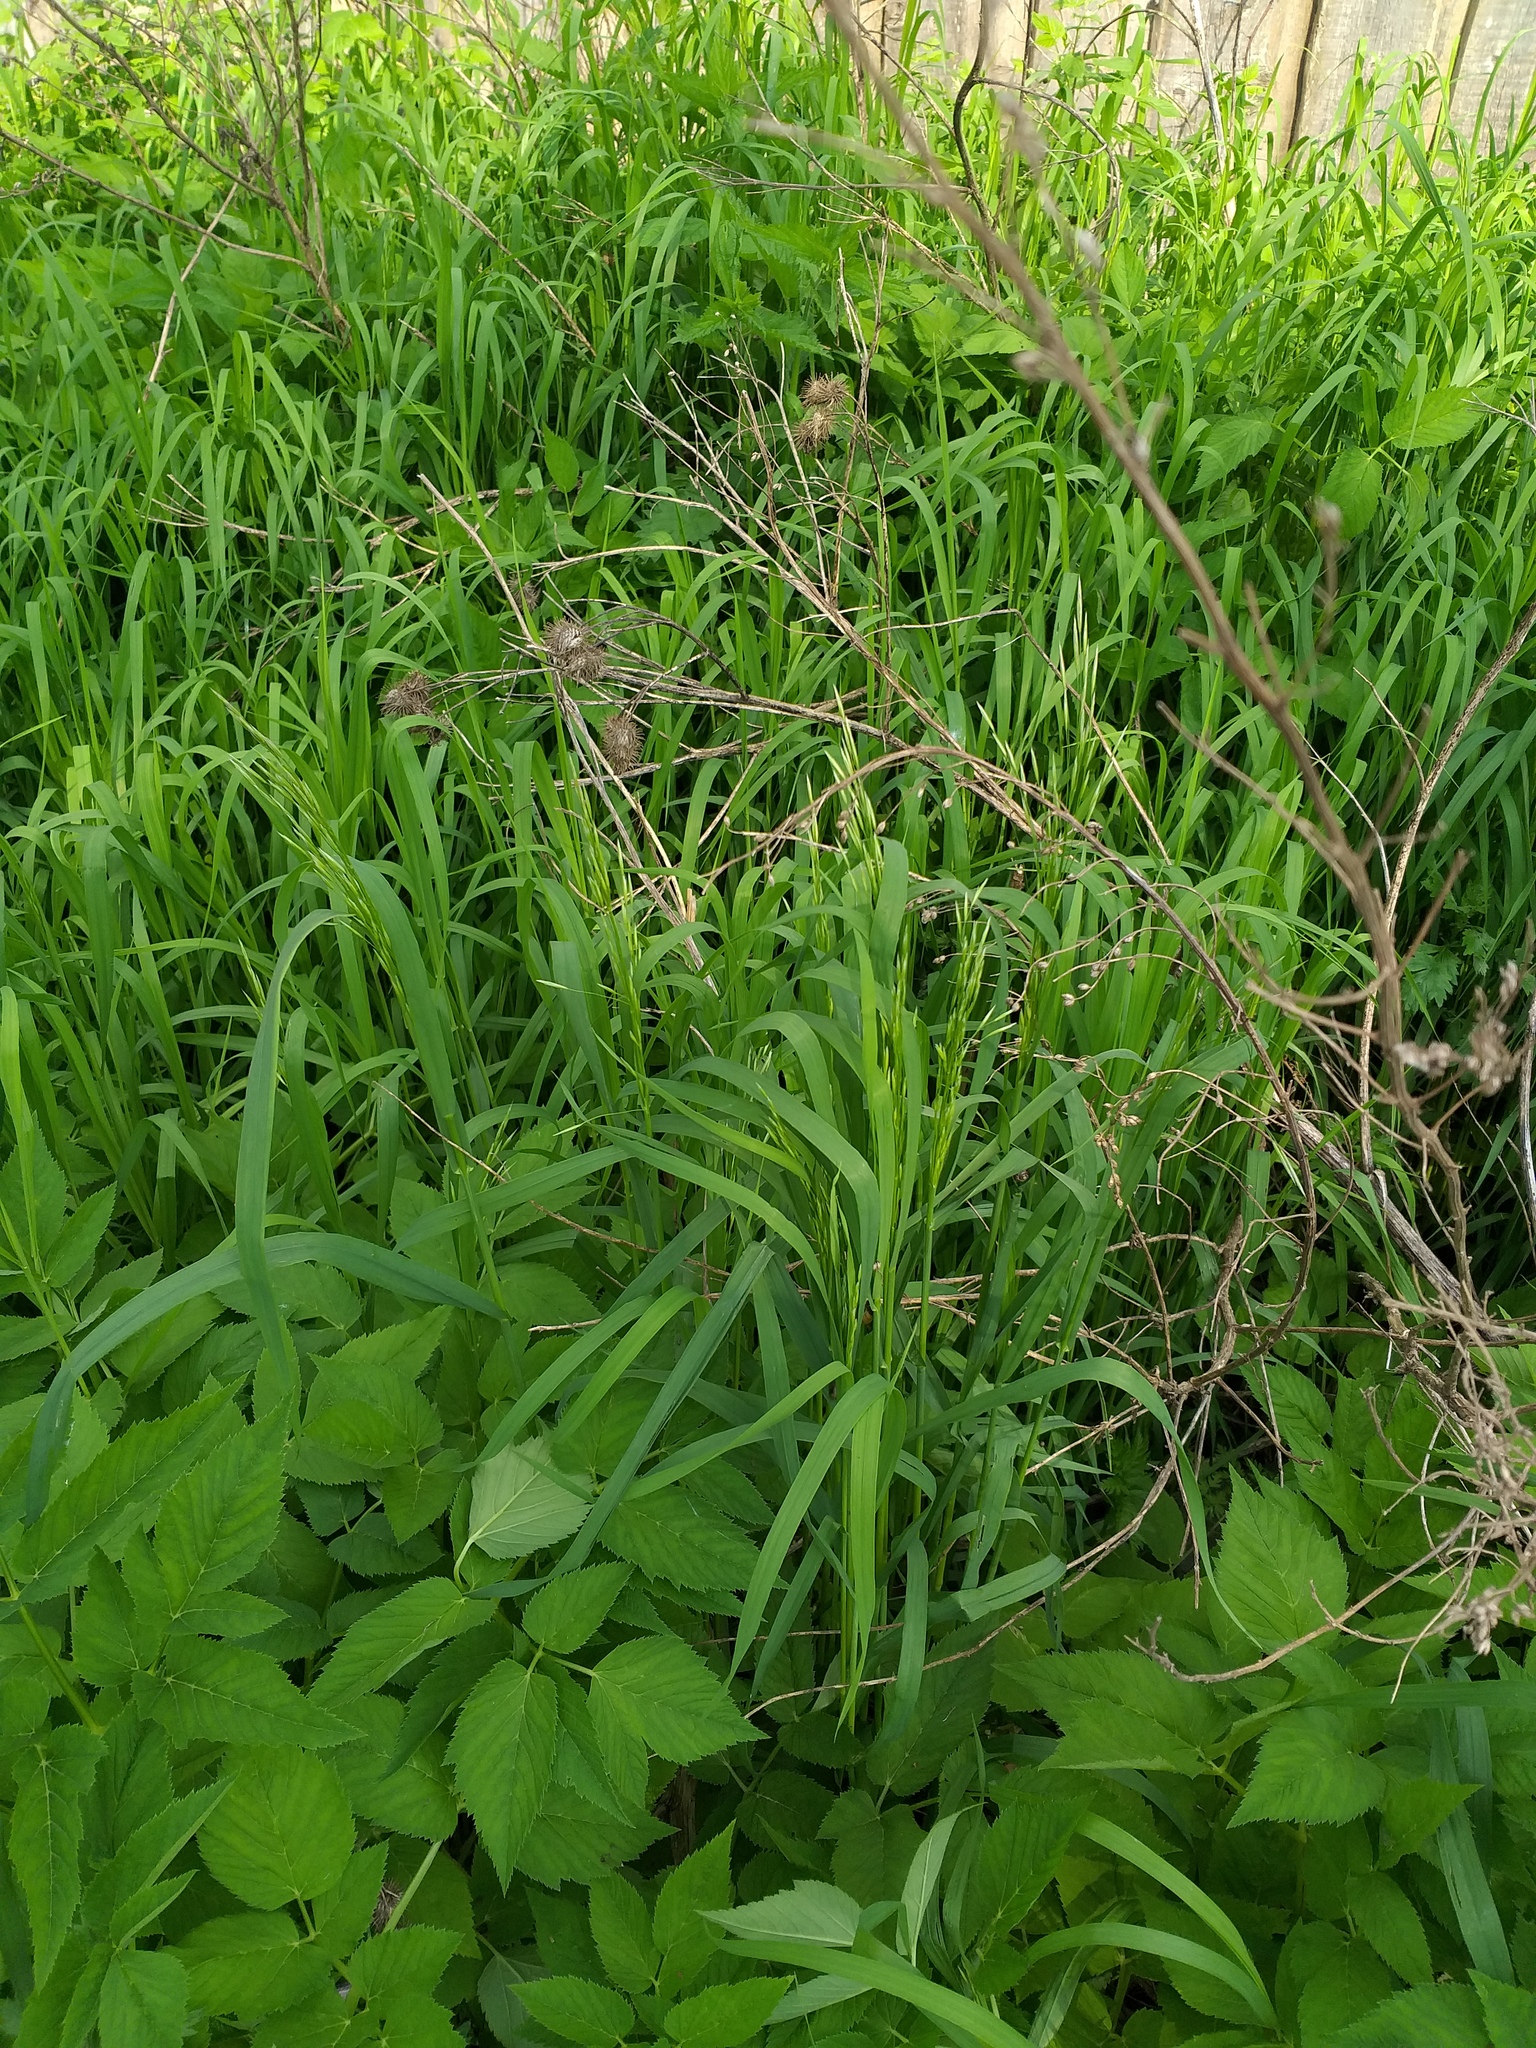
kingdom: Plantae
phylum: Tracheophyta
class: Liliopsida
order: Poales
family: Poaceae
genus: Bromus
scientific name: Bromus inermis
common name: Smooth brome
